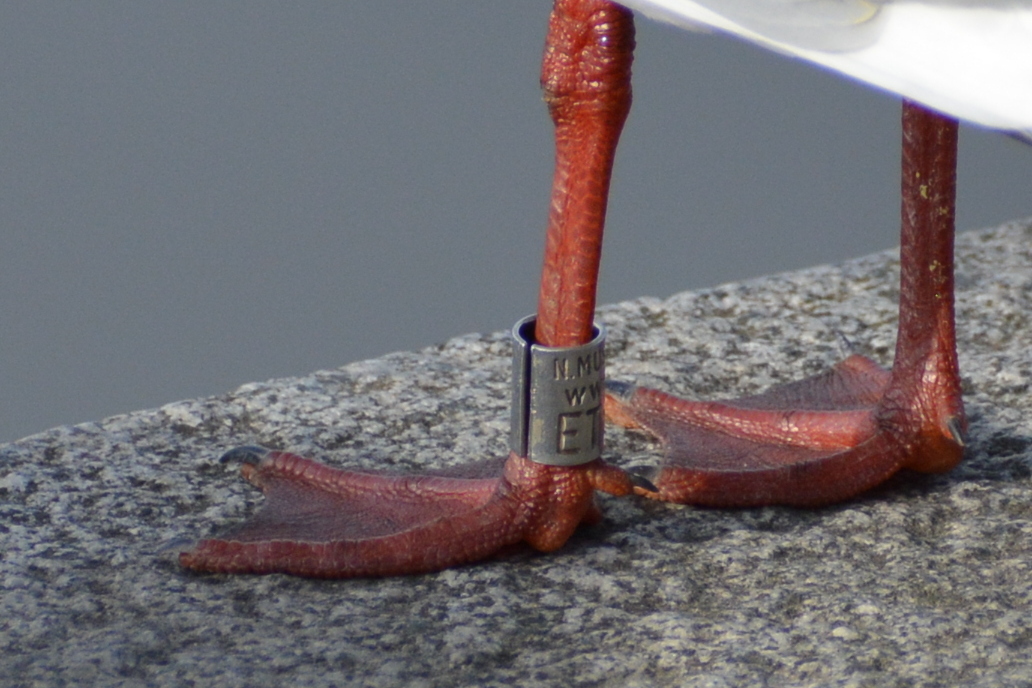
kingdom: Animalia
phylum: Chordata
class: Aves
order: Charadriiformes
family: Laridae
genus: Chroicocephalus
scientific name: Chroicocephalus ridibundus
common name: Black-headed gull
